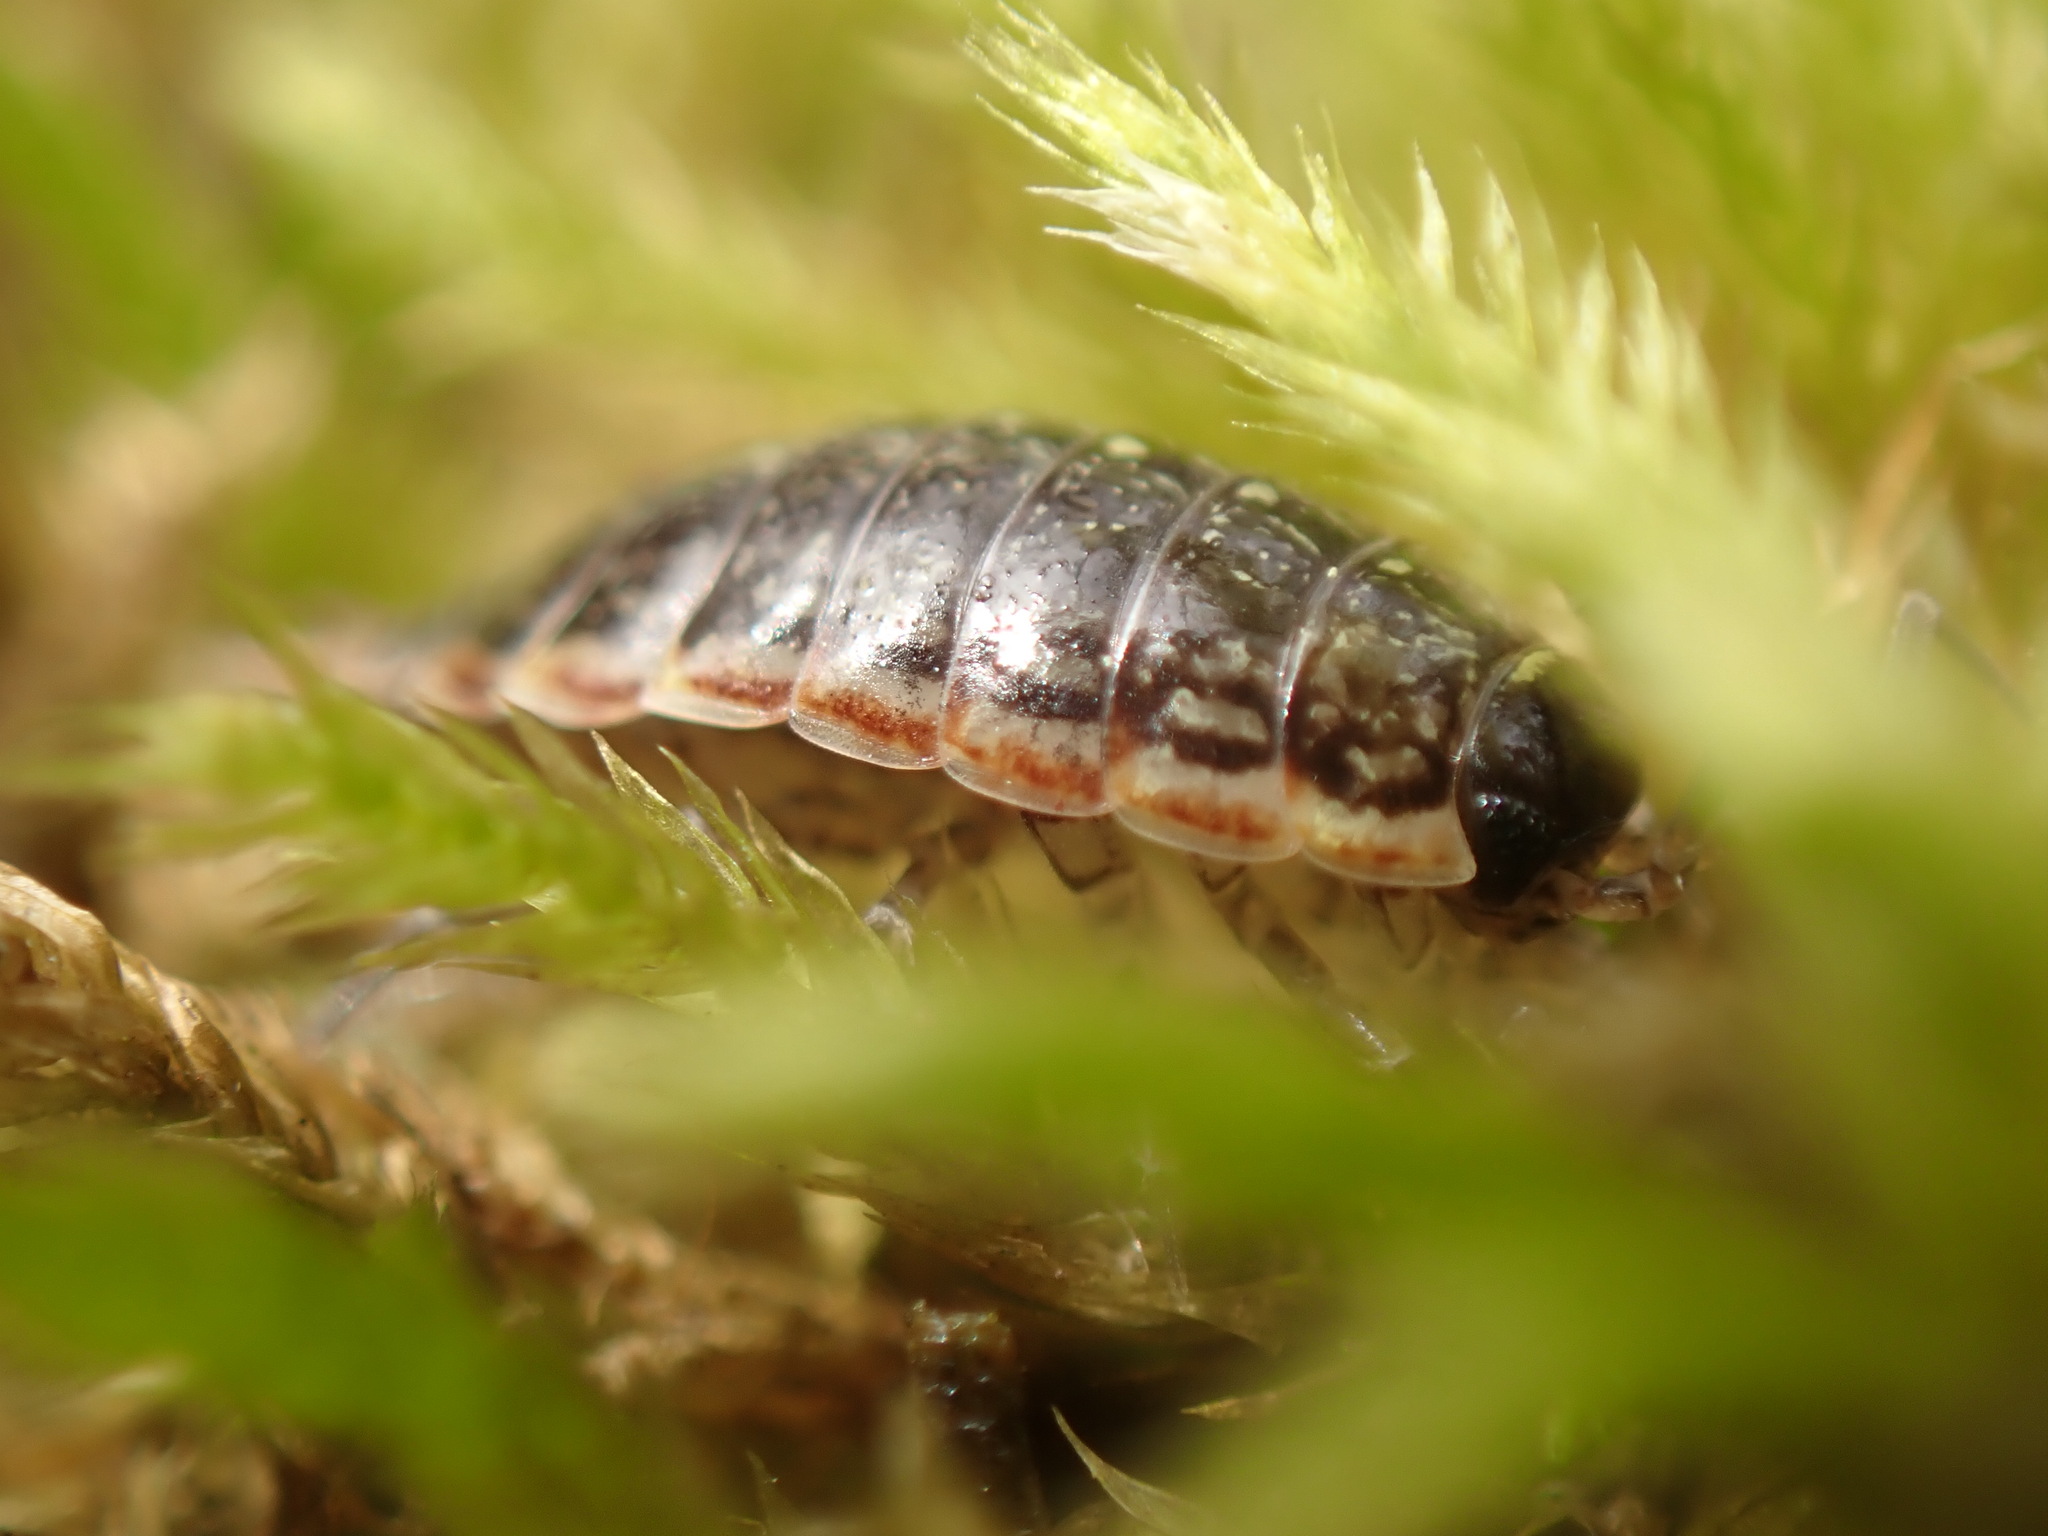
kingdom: Animalia
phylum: Arthropoda
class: Malacostraca
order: Isopoda
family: Philosciidae
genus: Philoscia
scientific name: Philoscia muscorum
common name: Common striped woodlouse
